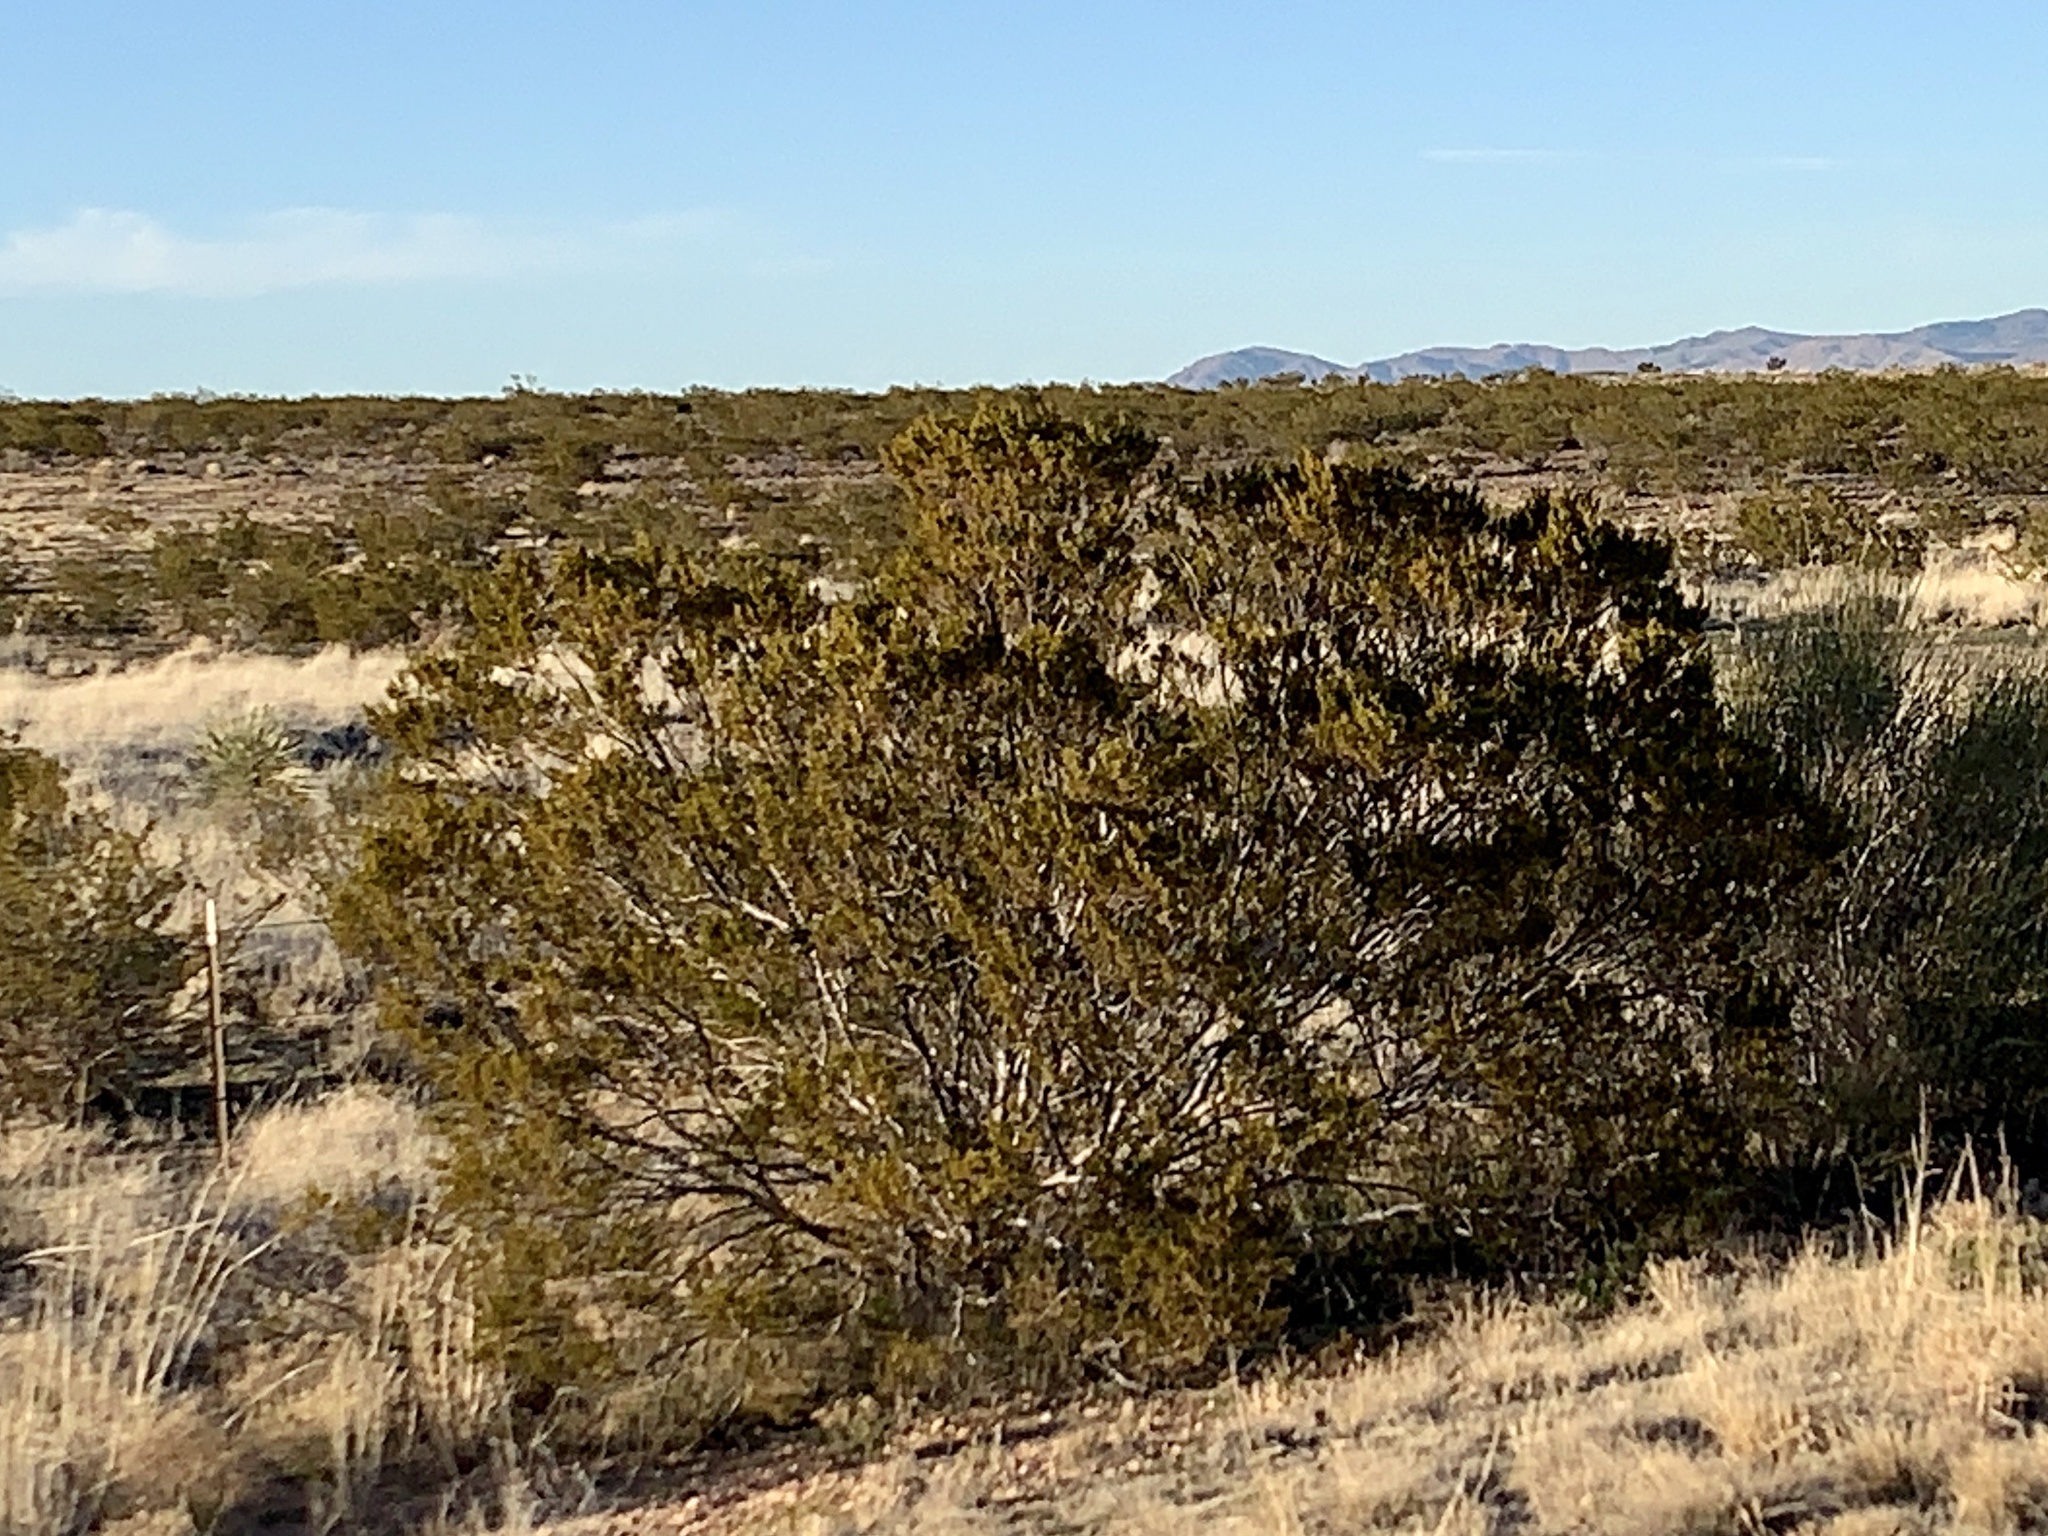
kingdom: Plantae
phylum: Tracheophyta
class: Magnoliopsida
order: Zygophyllales
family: Zygophyllaceae
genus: Larrea
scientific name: Larrea tridentata
